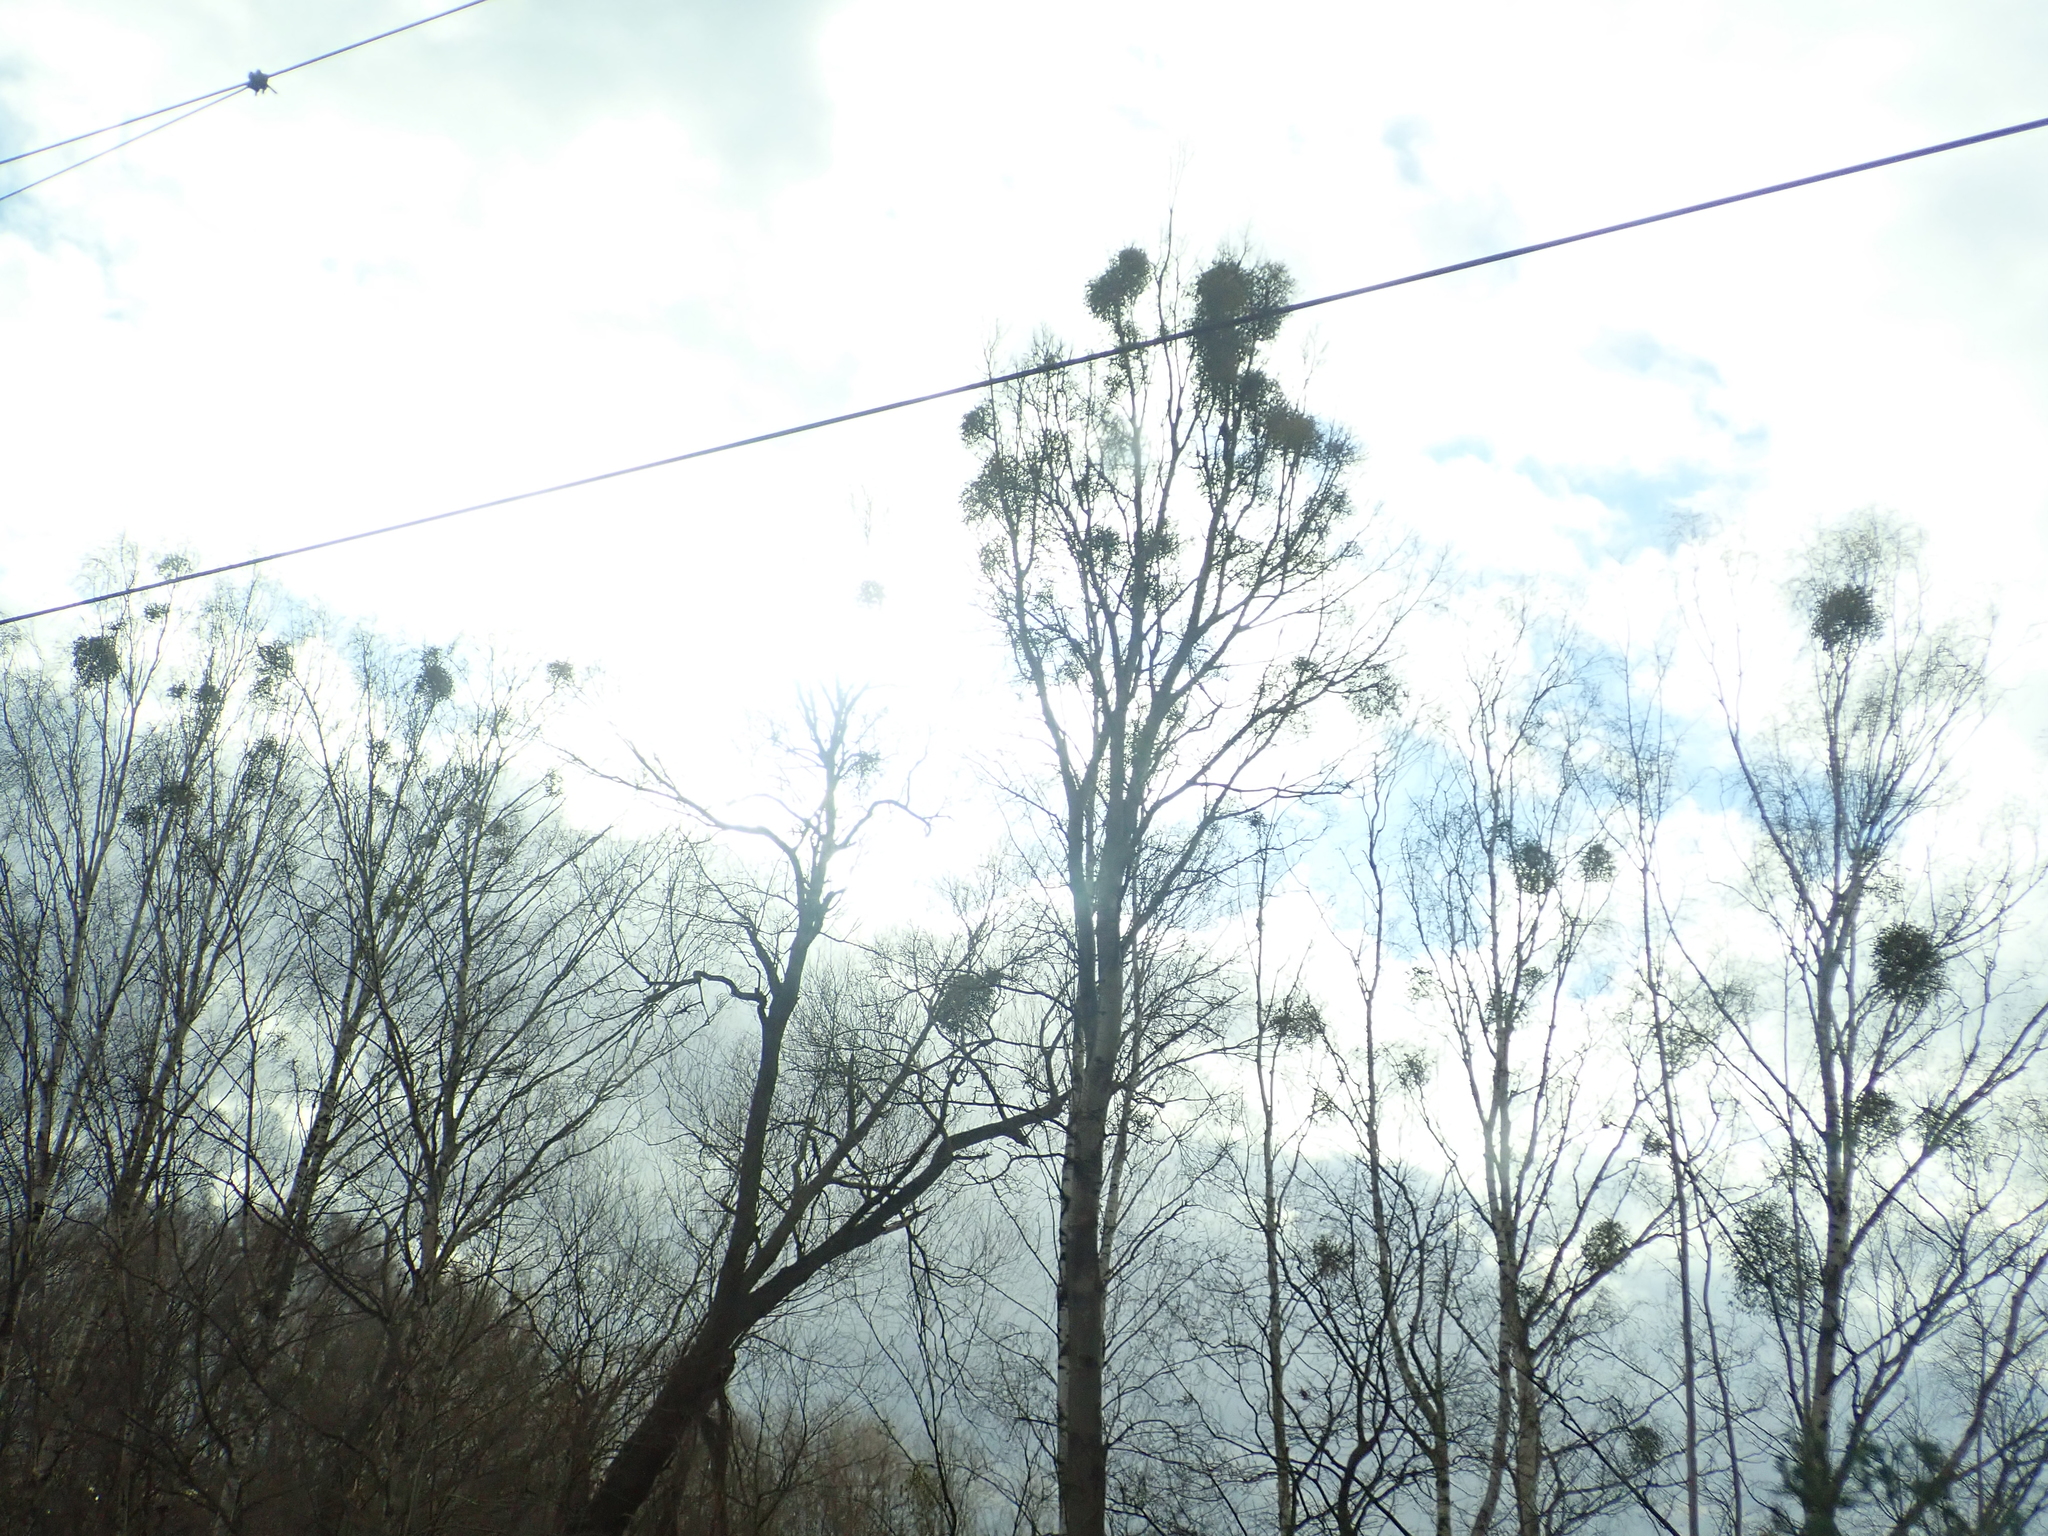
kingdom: Plantae
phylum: Tracheophyta
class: Magnoliopsida
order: Santalales
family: Viscaceae
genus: Viscum
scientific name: Viscum album
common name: Mistletoe
